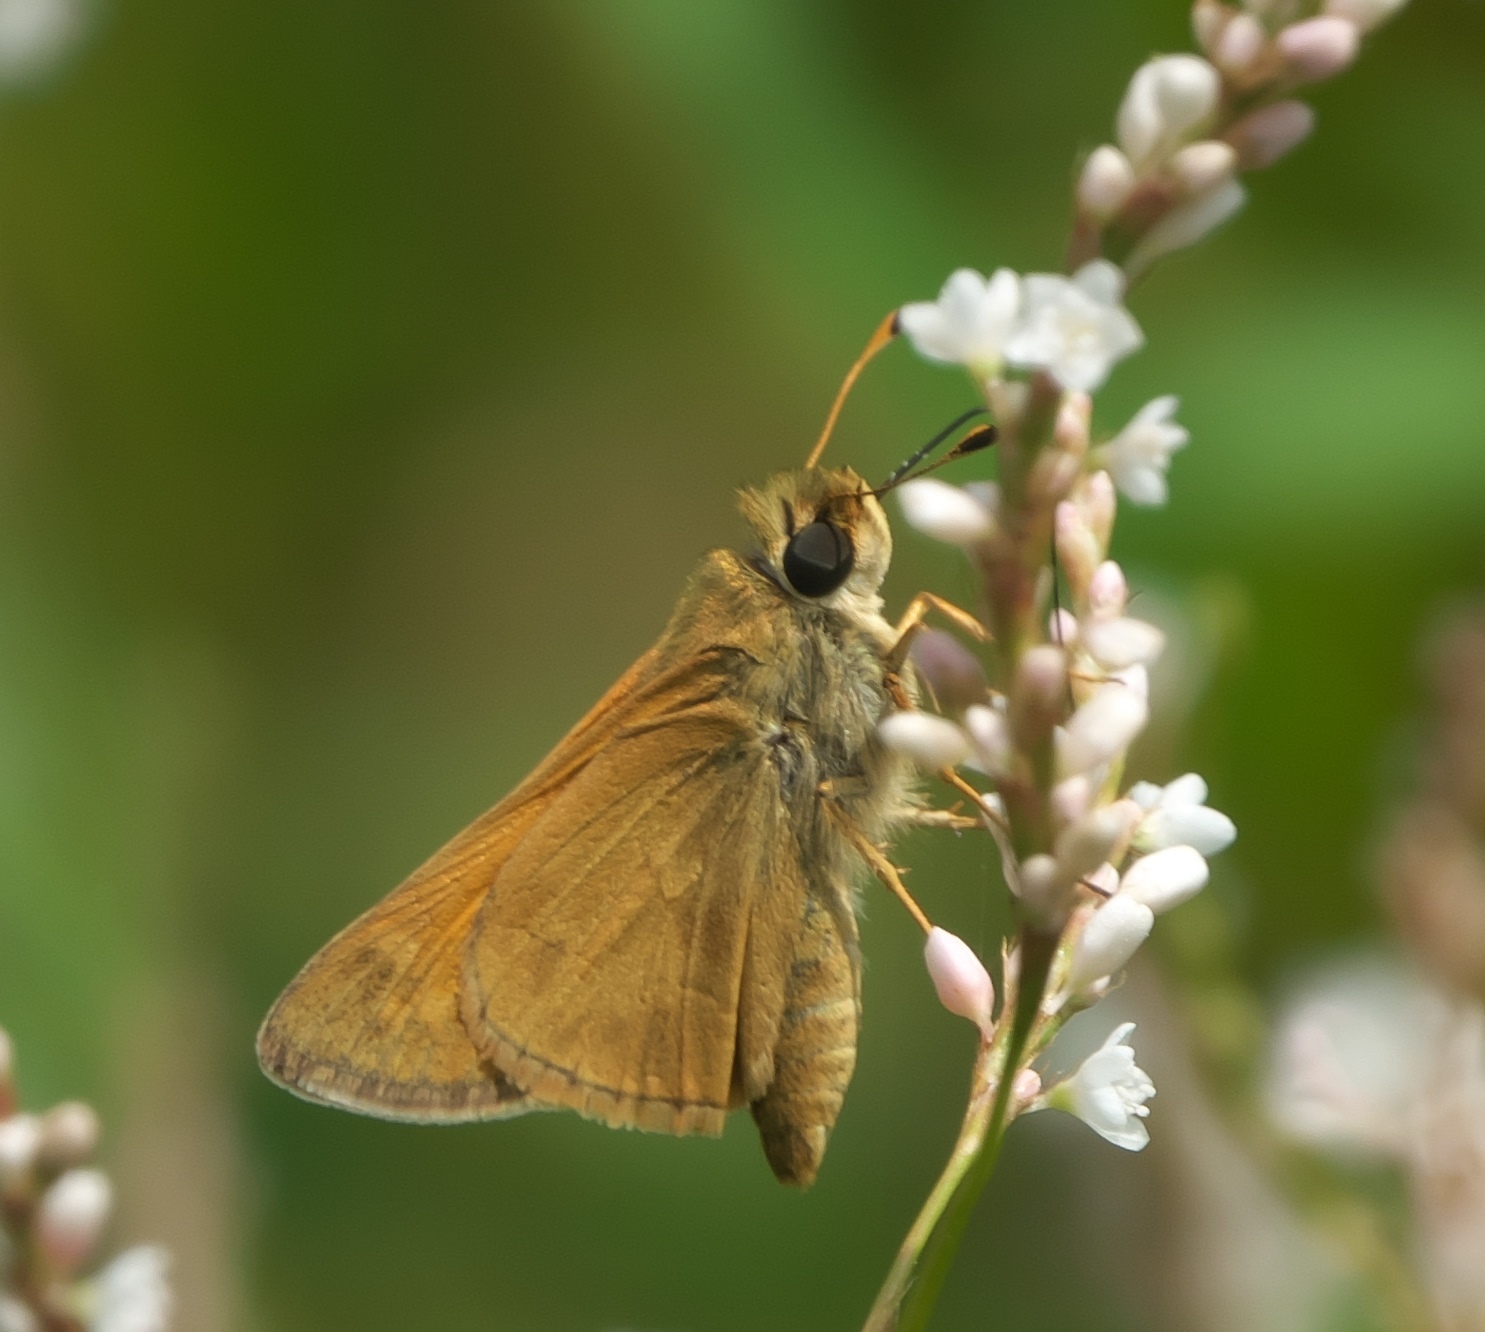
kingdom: Animalia
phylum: Arthropoda
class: Insecta
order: Lepidoptera
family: Hesperiidae
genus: Atalopedes
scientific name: Atalopedes
